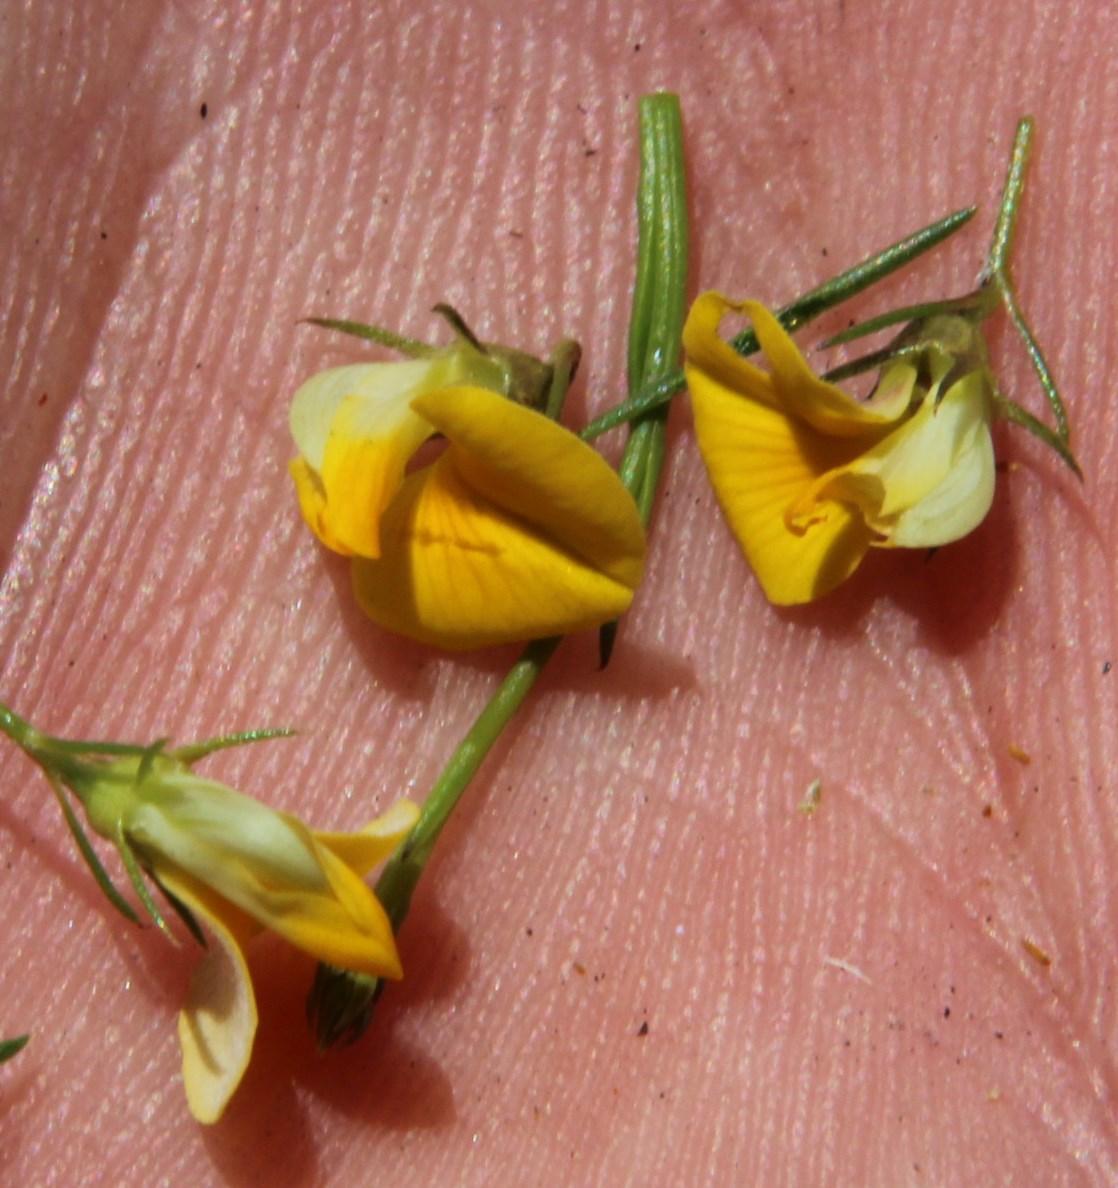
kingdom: Plantae
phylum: Tracheophyta
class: Magnoliopsida
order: Fabales
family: Fabaceae
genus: Aspalathus
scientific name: Aspalathus bracteata
